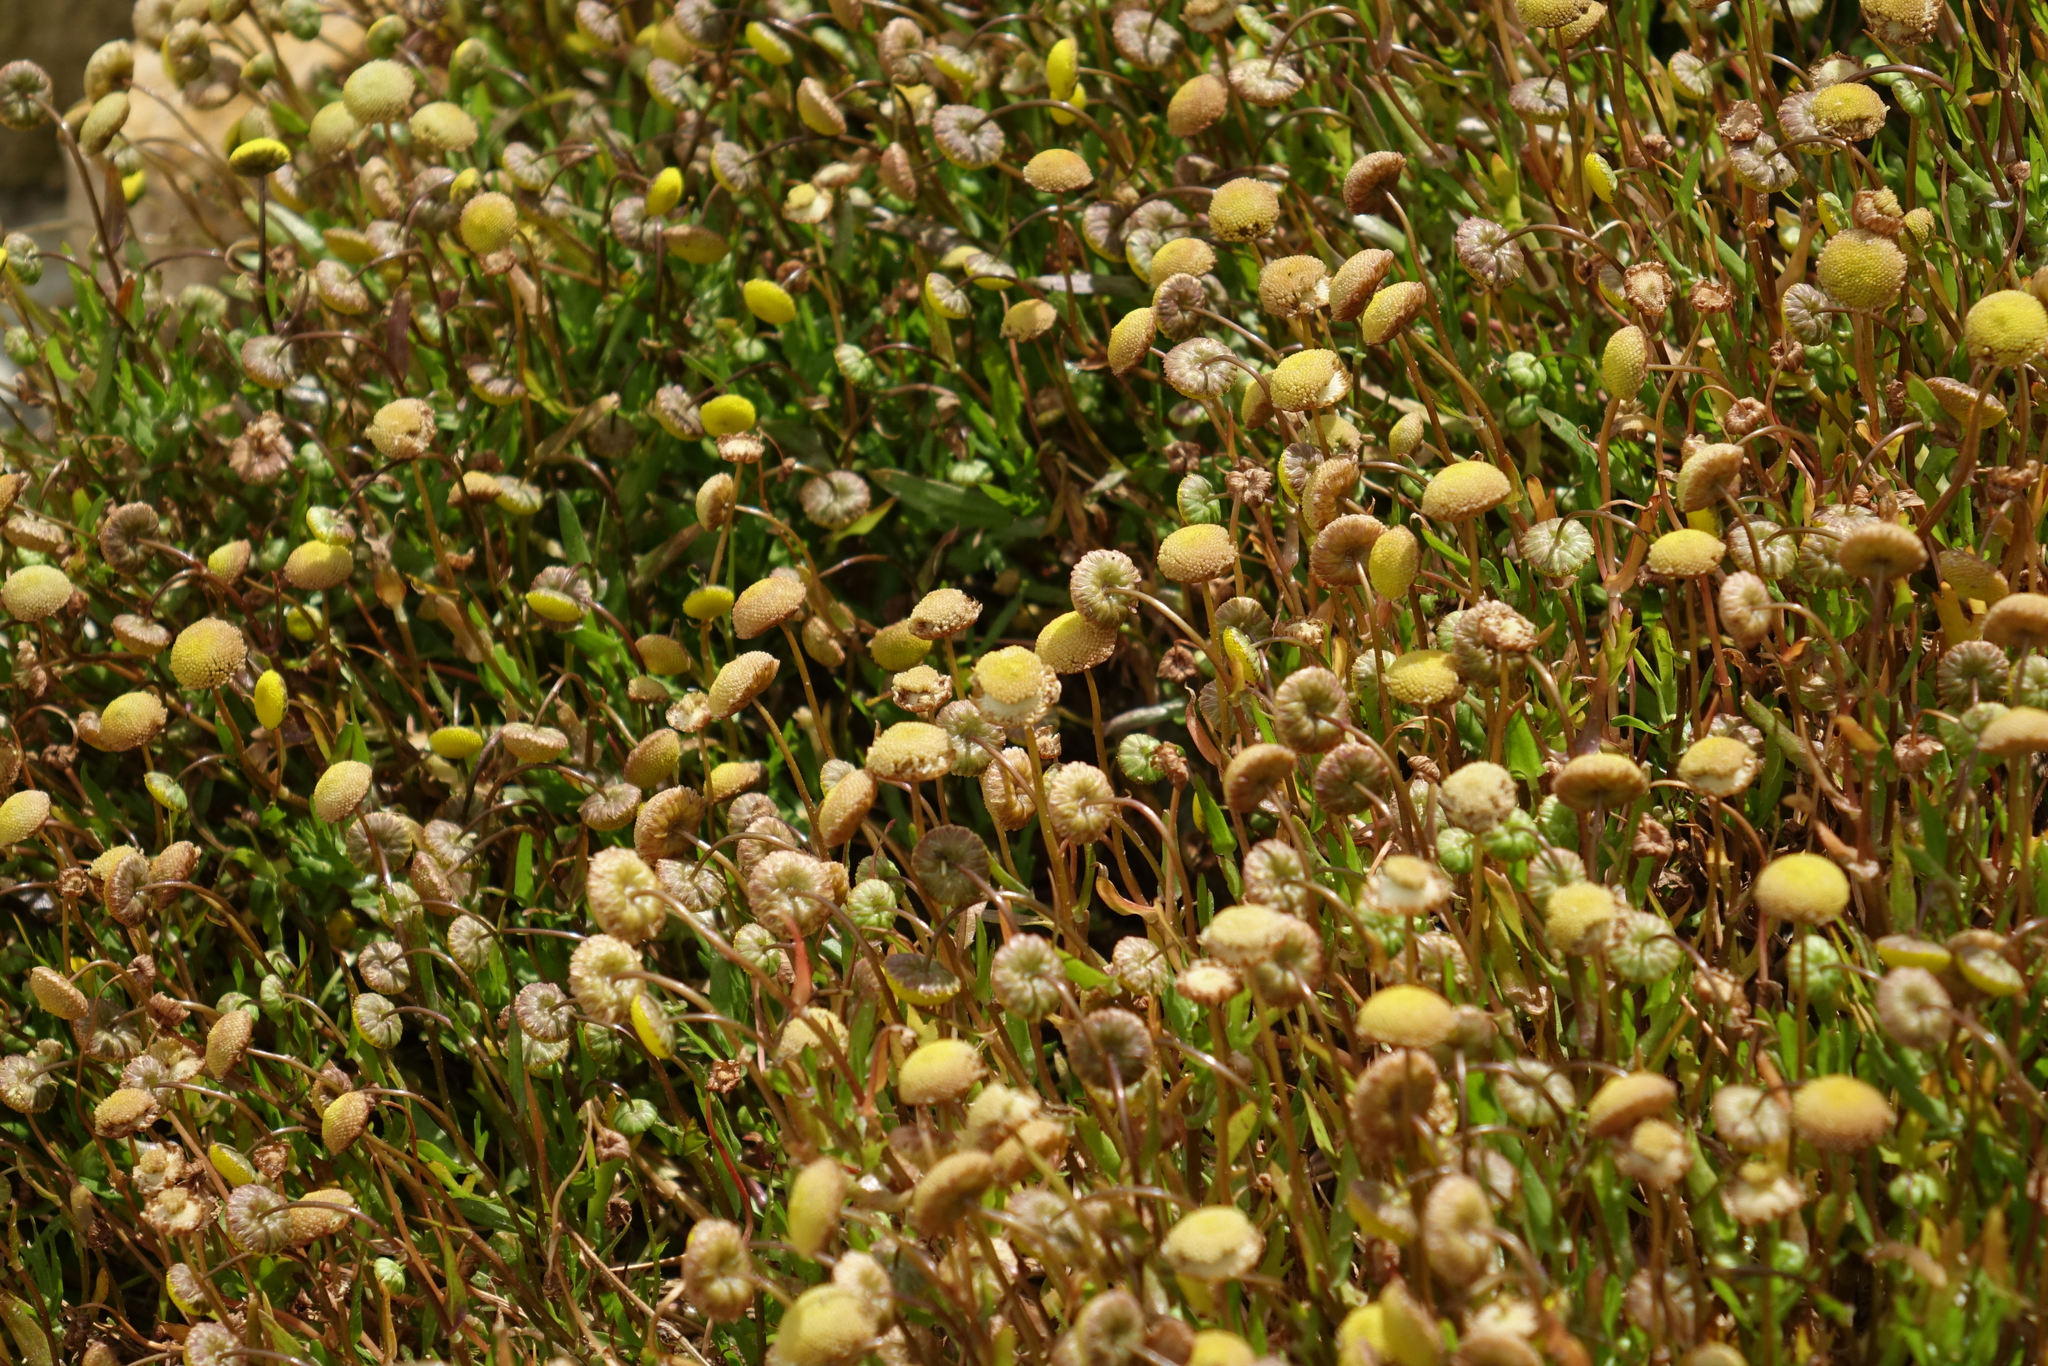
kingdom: Plantae
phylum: Tracheophyta
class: Magnoliopsida
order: Asterales
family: Asteraceae
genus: Cotula
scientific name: Cotula coronopifolia
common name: Buttonweed
